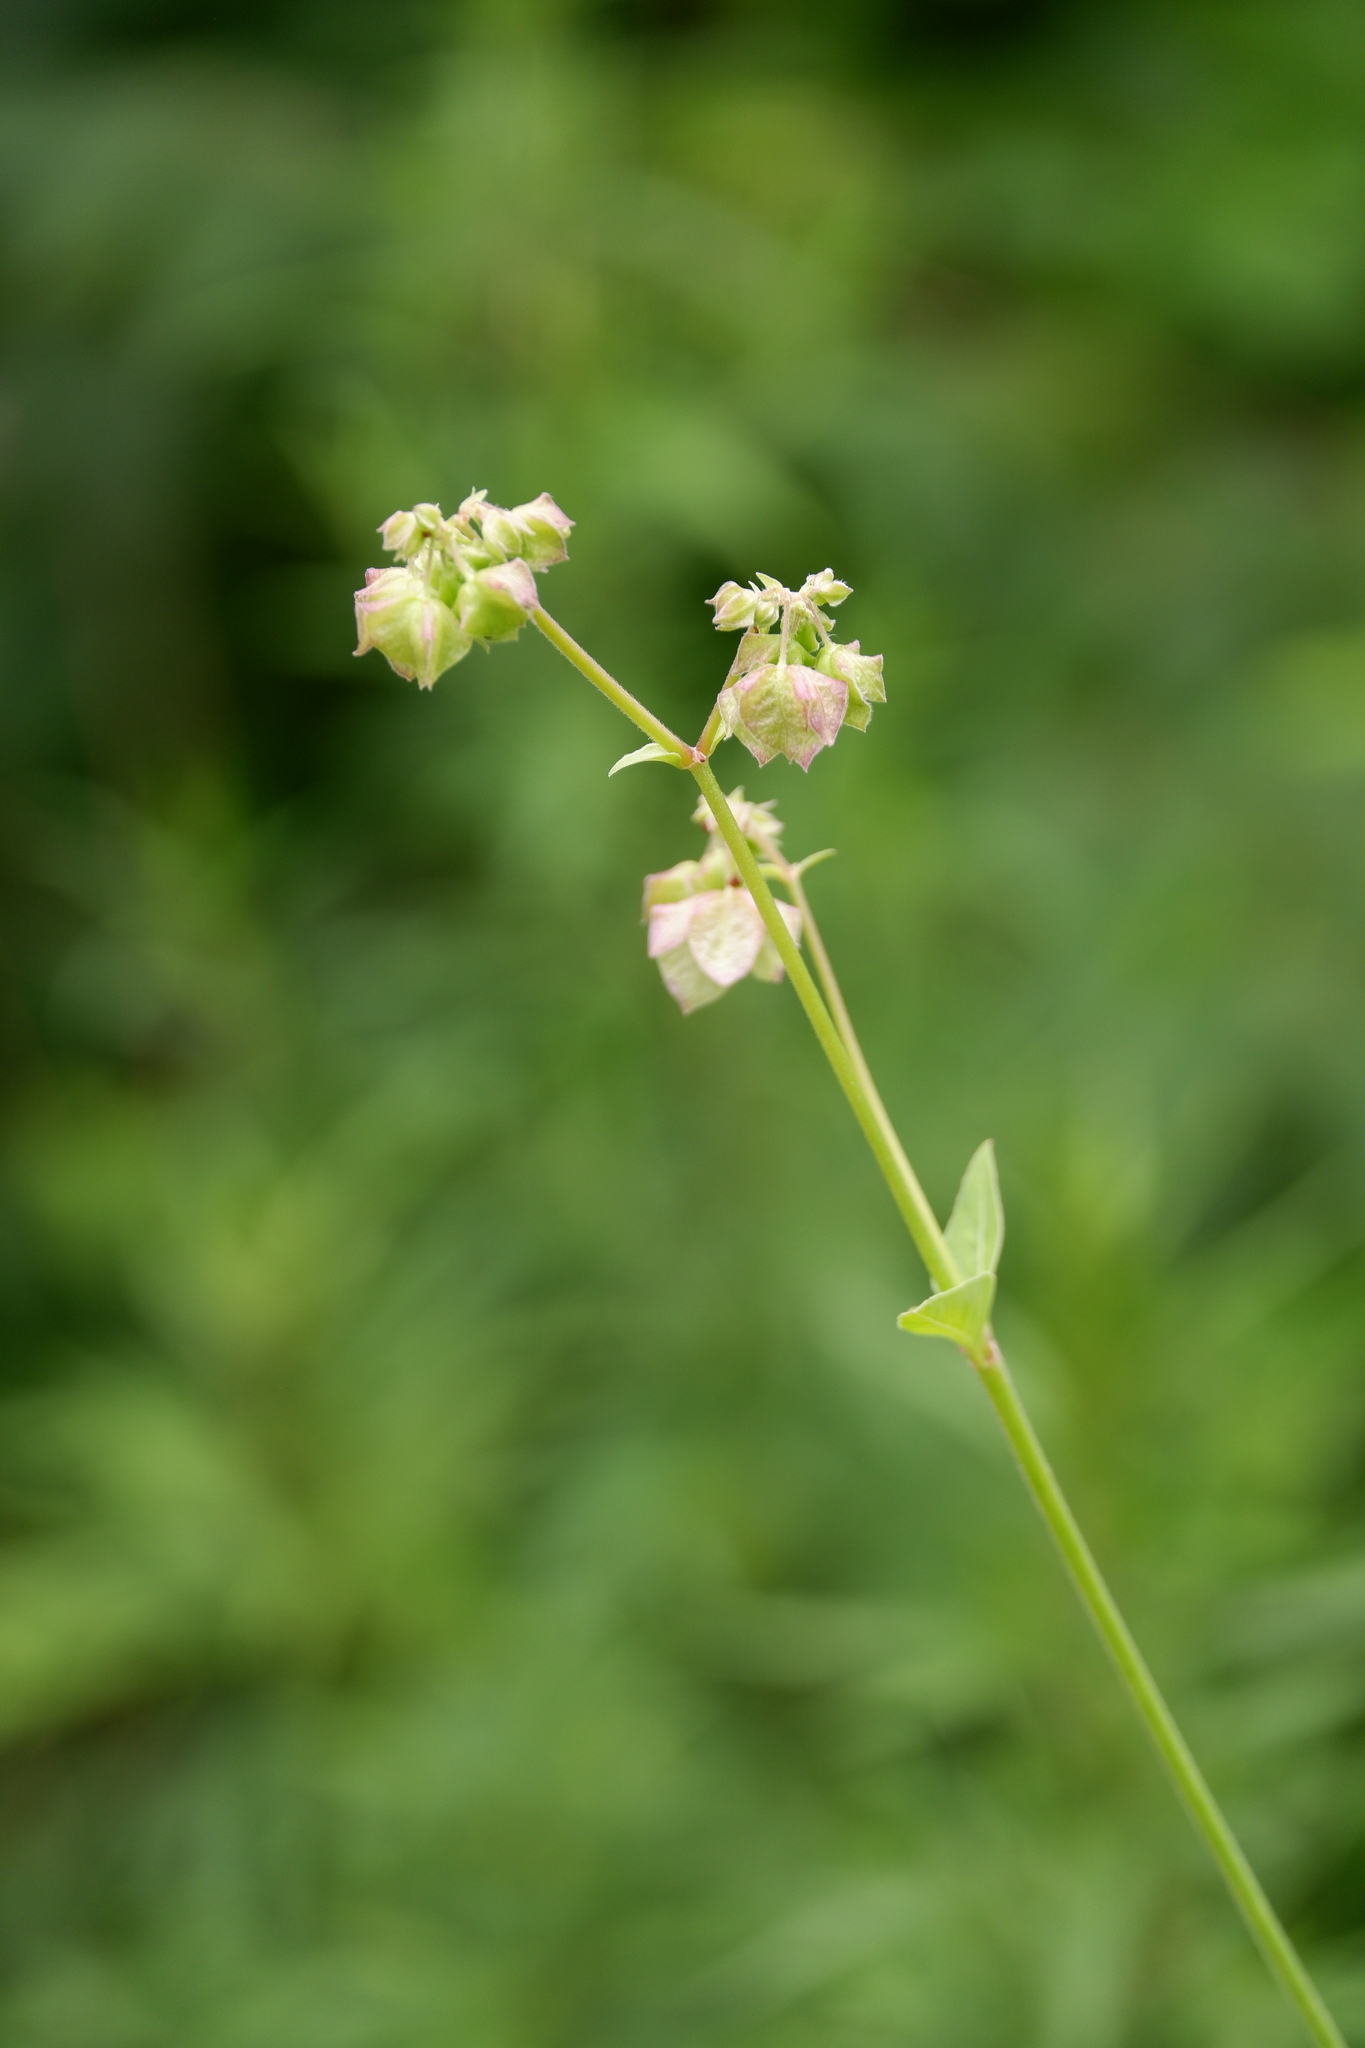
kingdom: Plantae
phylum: Tracheophyta
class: Magnoliopsida
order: Caryophyllales
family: Nyctaginaceae
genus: Mirabilis
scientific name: Mirabilis nyctaginea
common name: Umbrella wort
